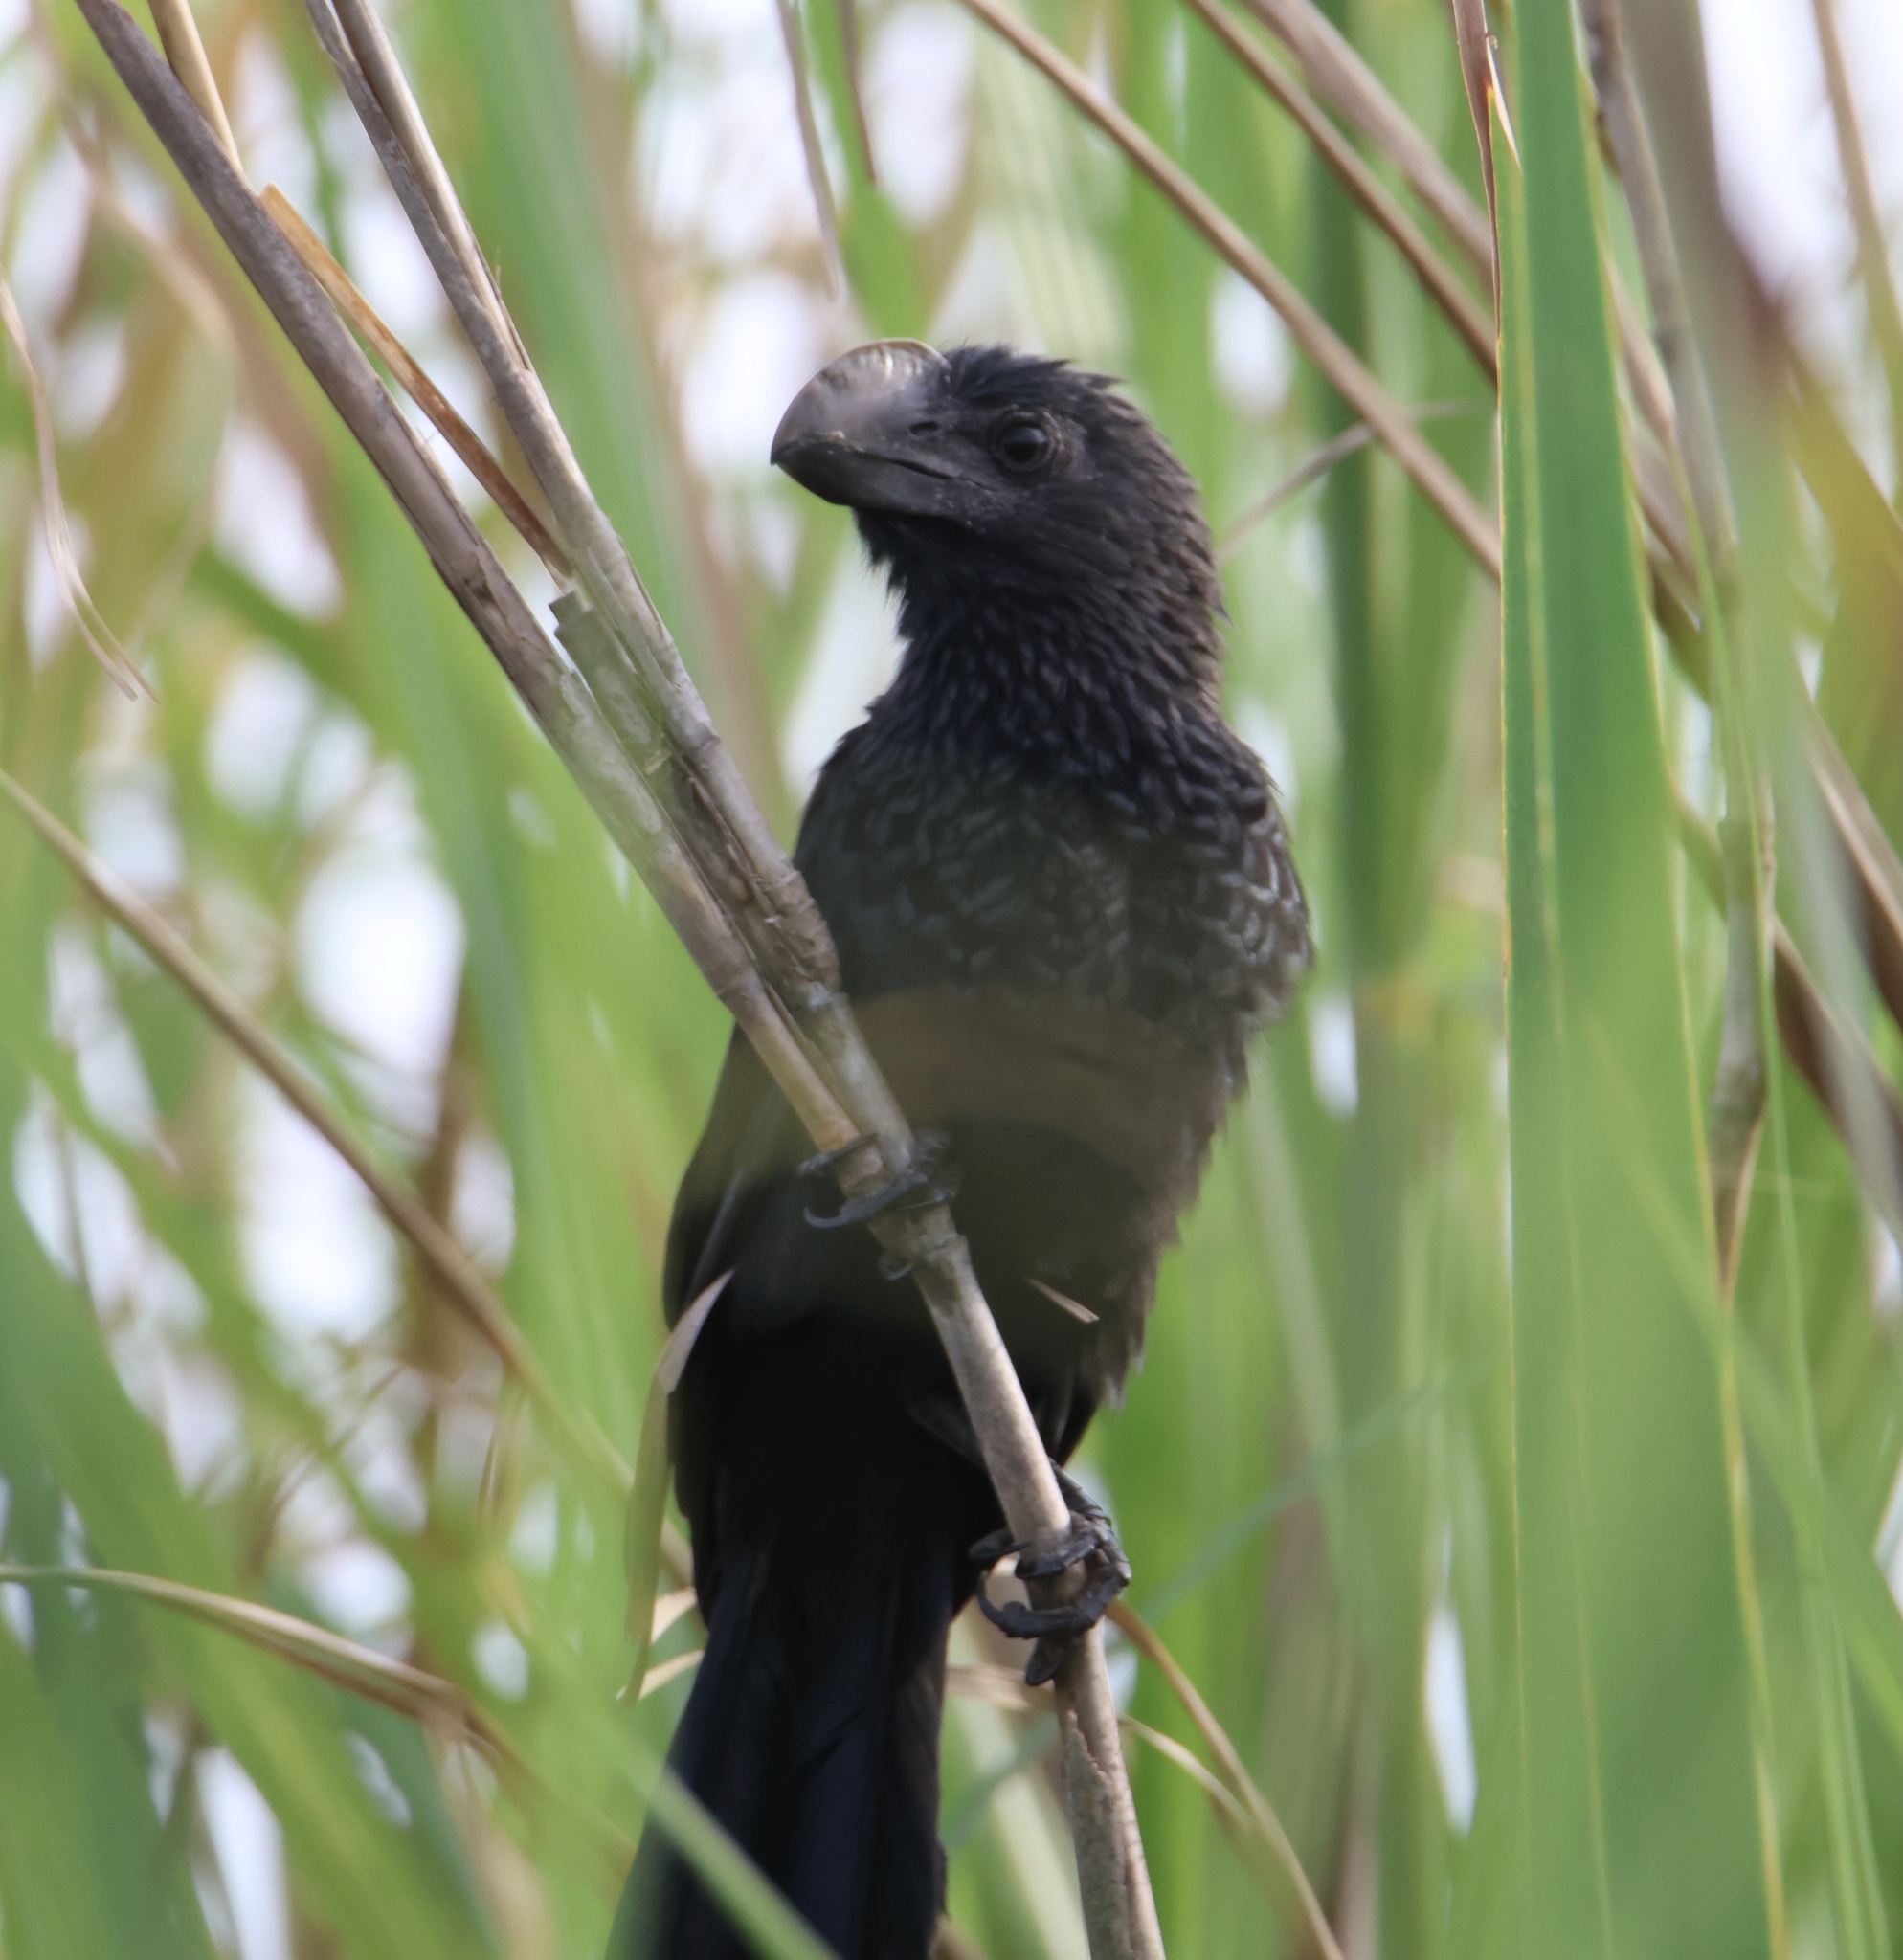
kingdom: Animalia
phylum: Chordata
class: Aves
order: Cuculiformes
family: Cuculidae
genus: Crotophaga
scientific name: Crotophaga ani
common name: Smooth-billed ani
